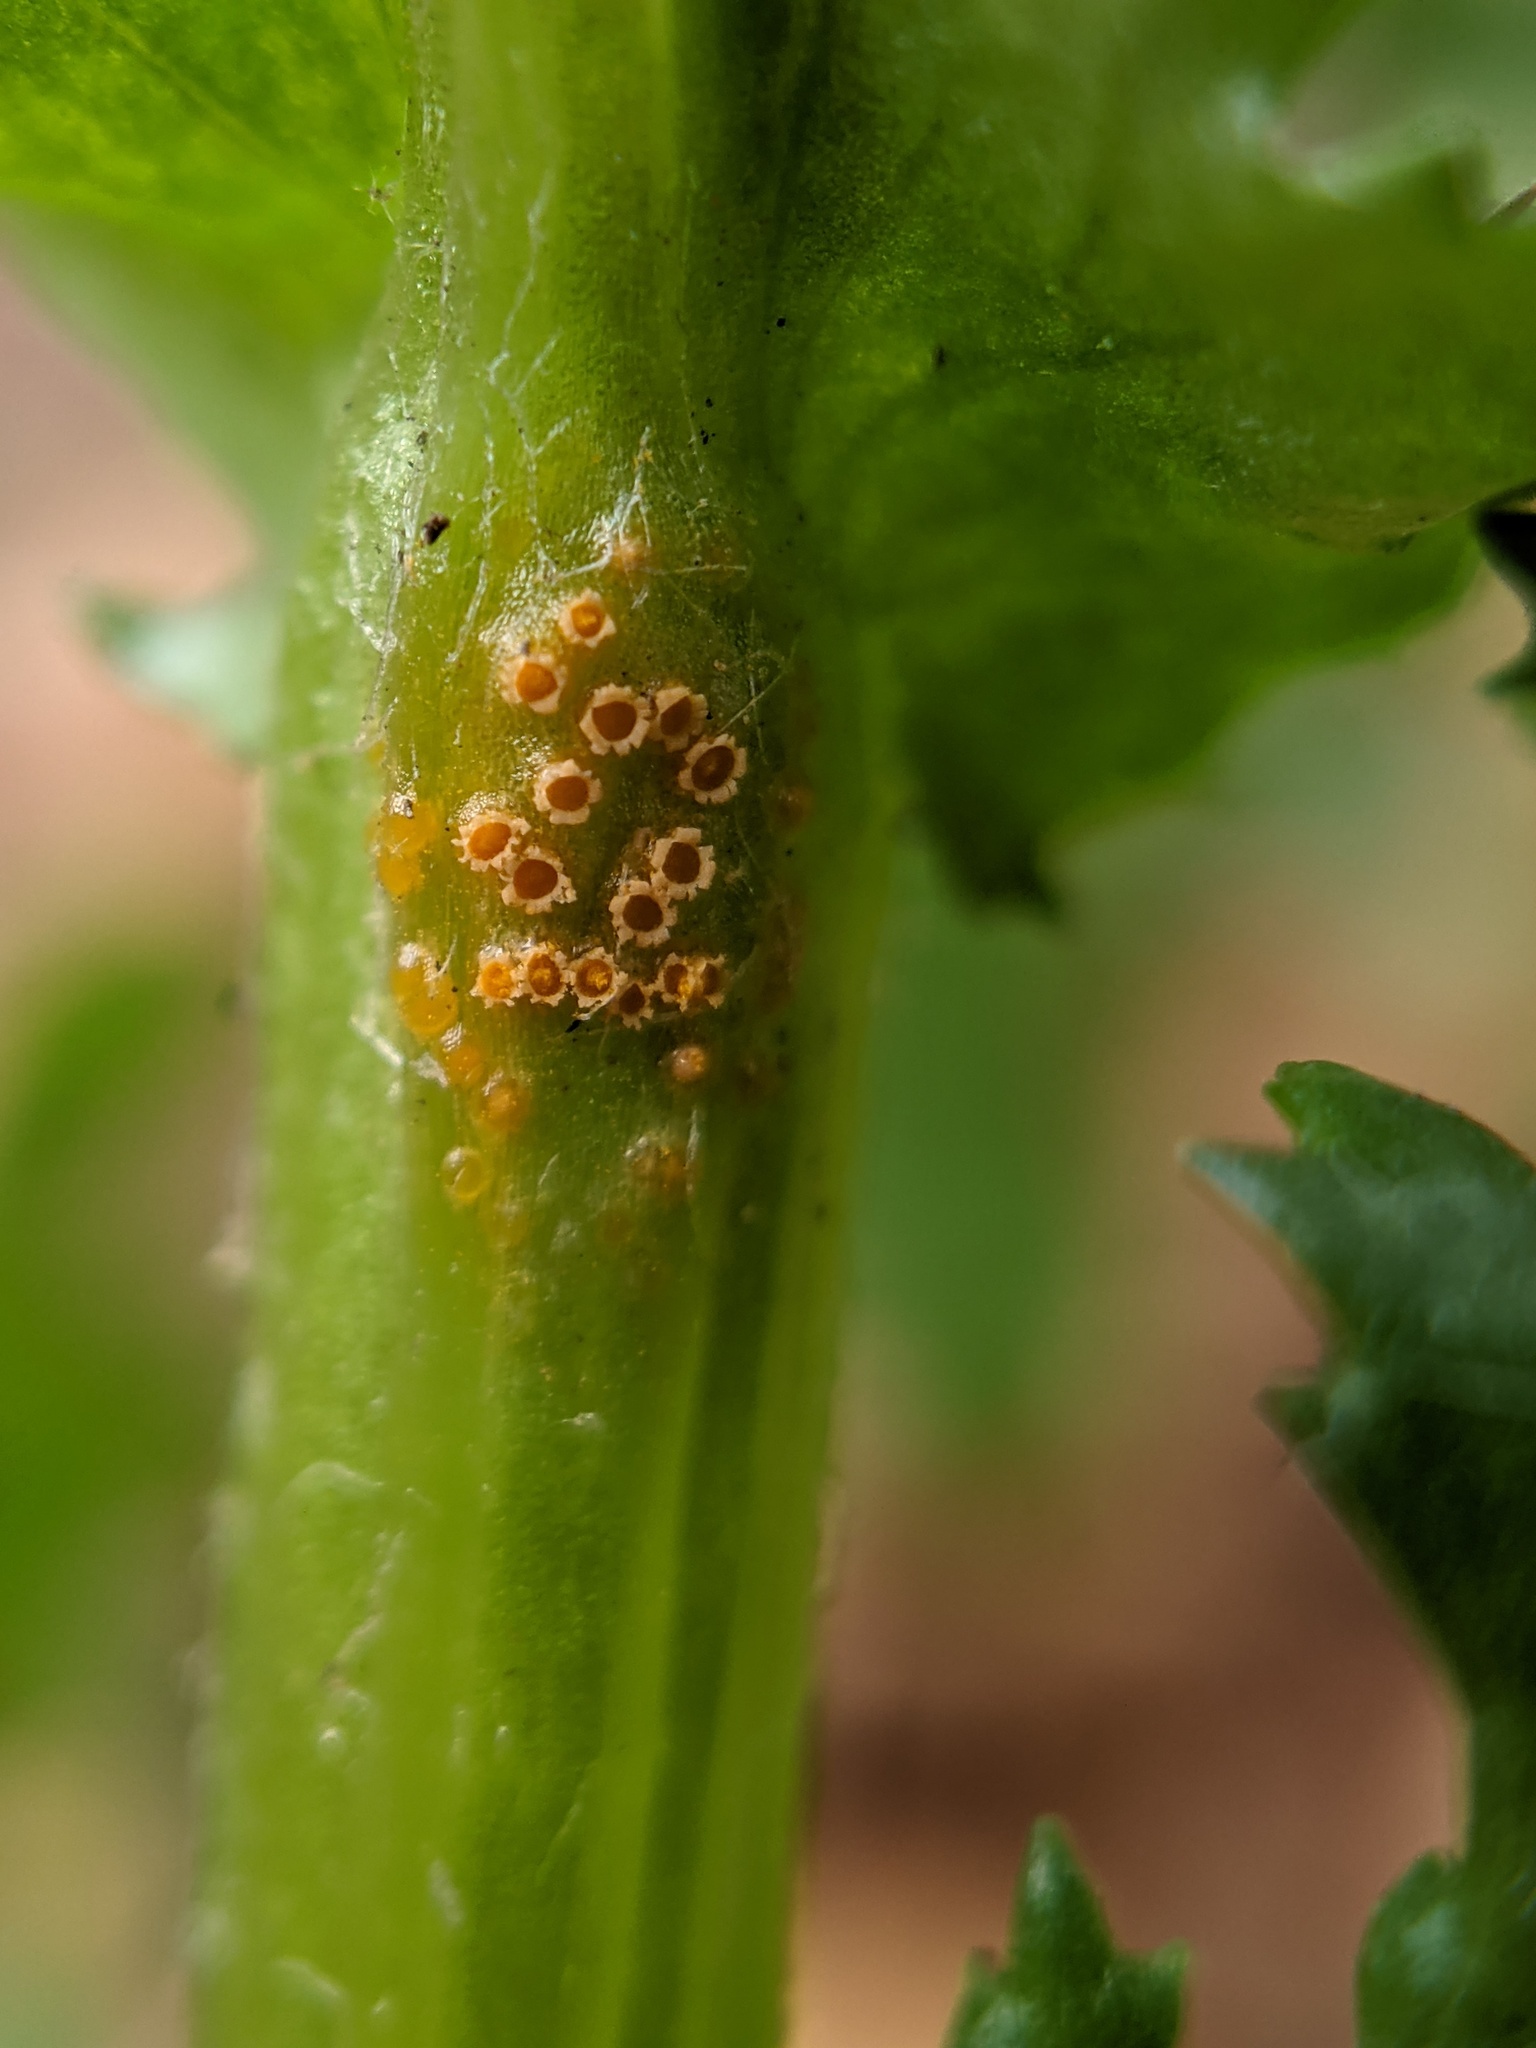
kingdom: Fungi
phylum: Basidiomycota
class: Pucciniomycetes
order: Pucciniales
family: Pucciniaceae
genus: Puccinia
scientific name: Puccinia lagenophorae
